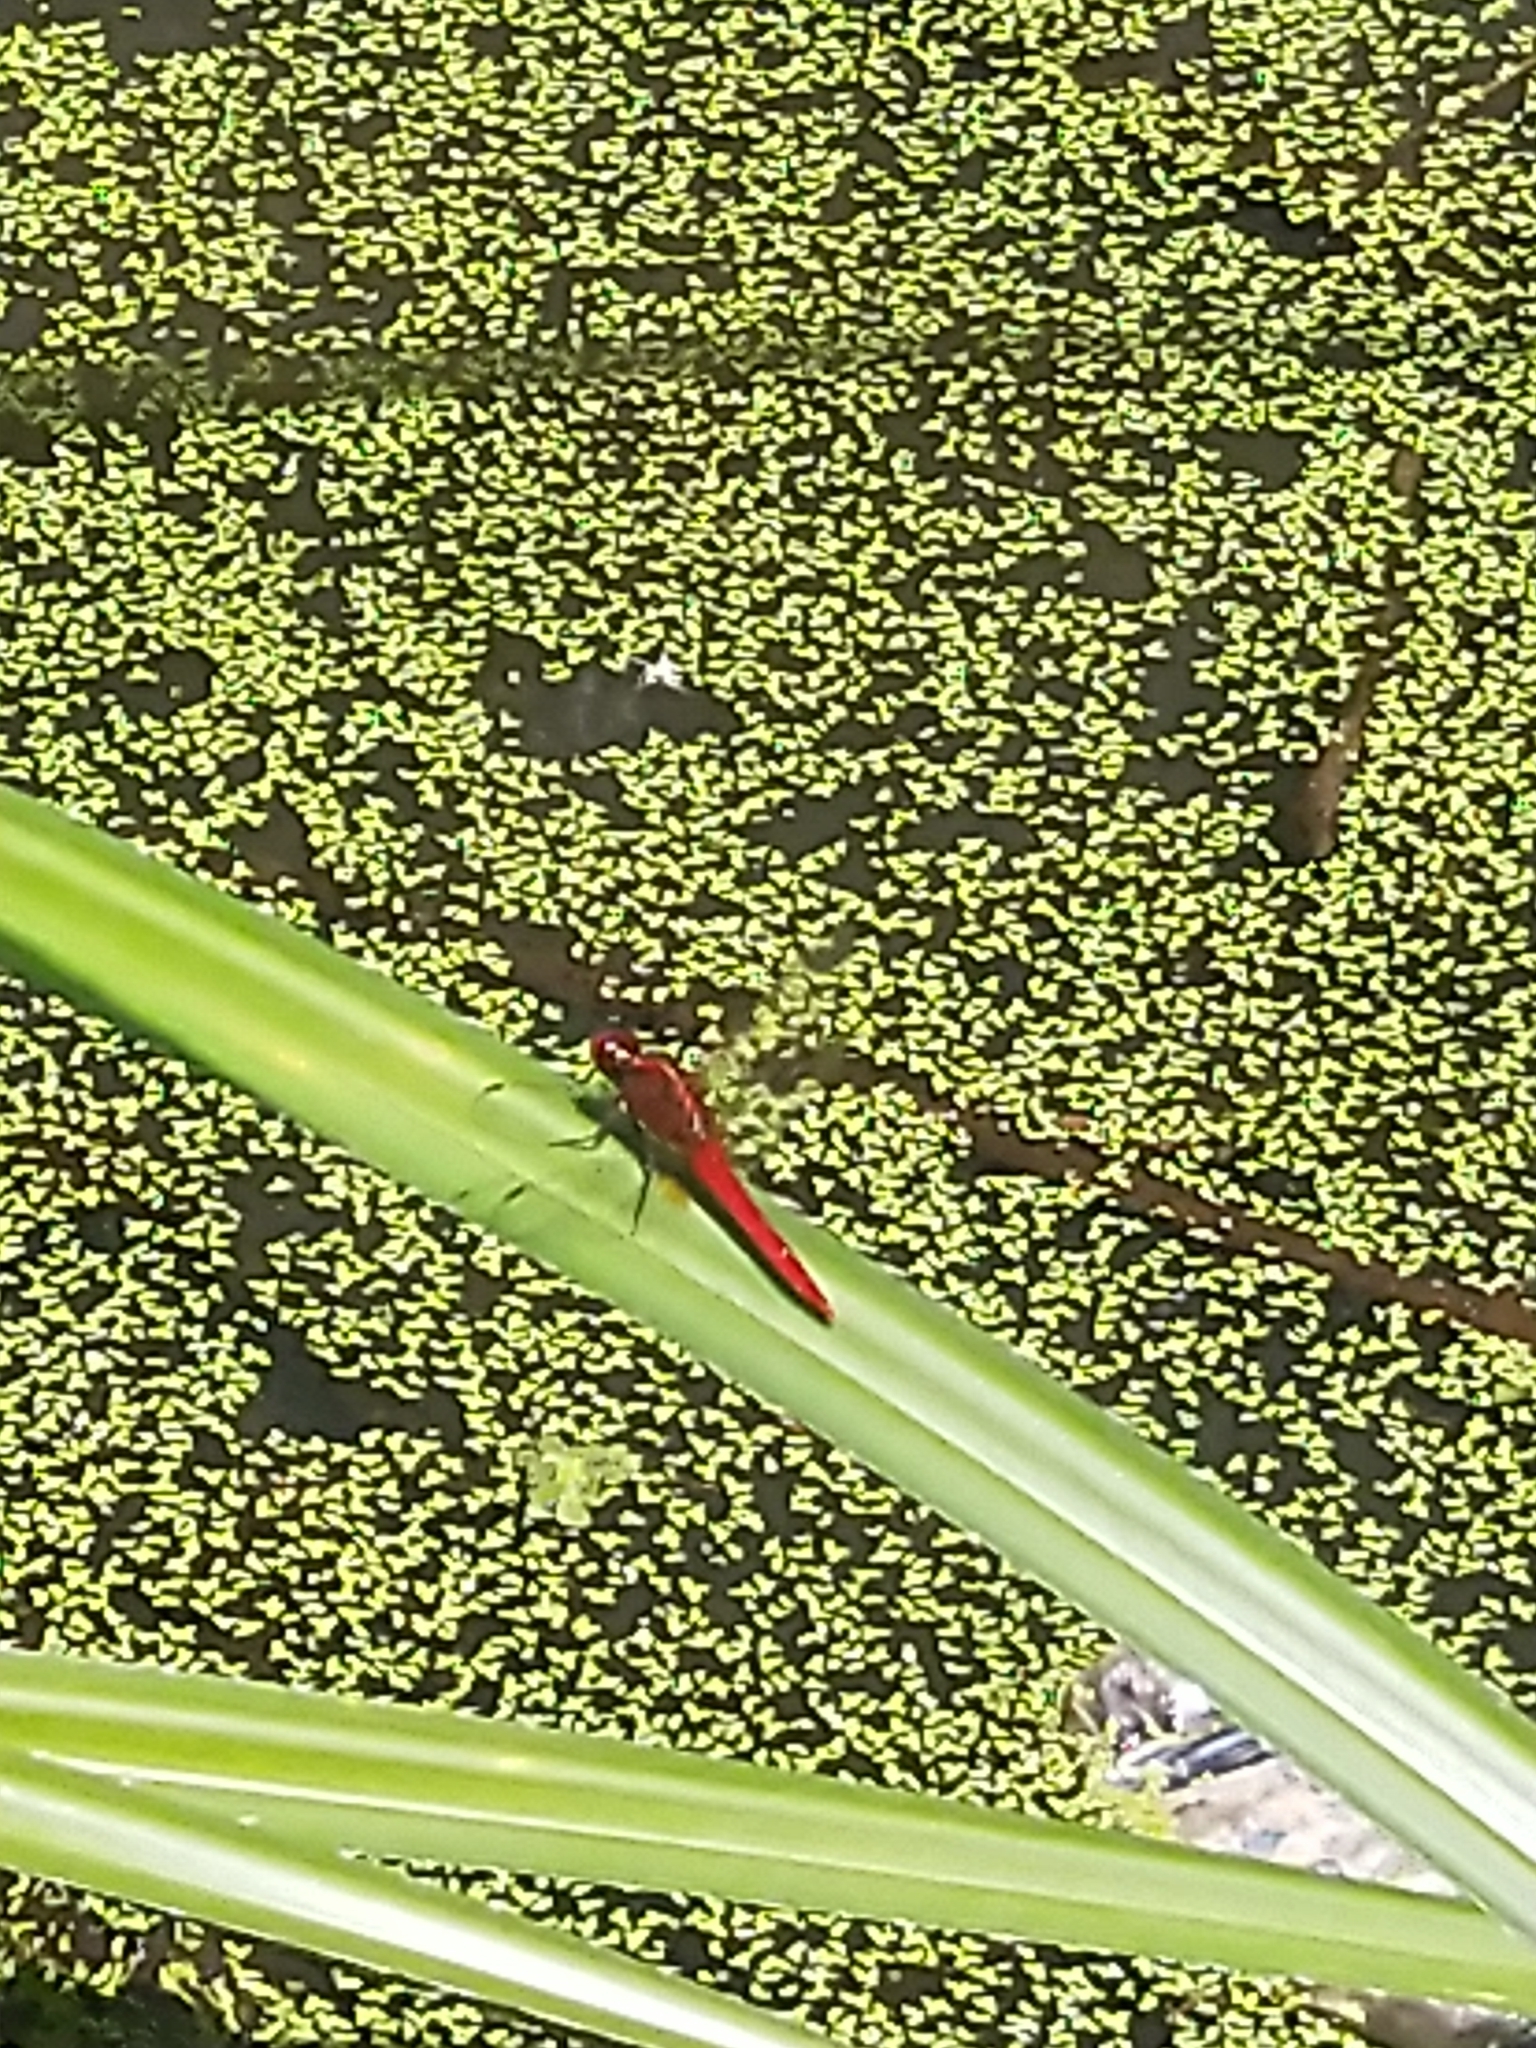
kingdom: Animalia
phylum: Arthropoda
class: Insecta
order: Odonata
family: Libellulidae
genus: Rhodothemis
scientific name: Rhodothemis rufa
